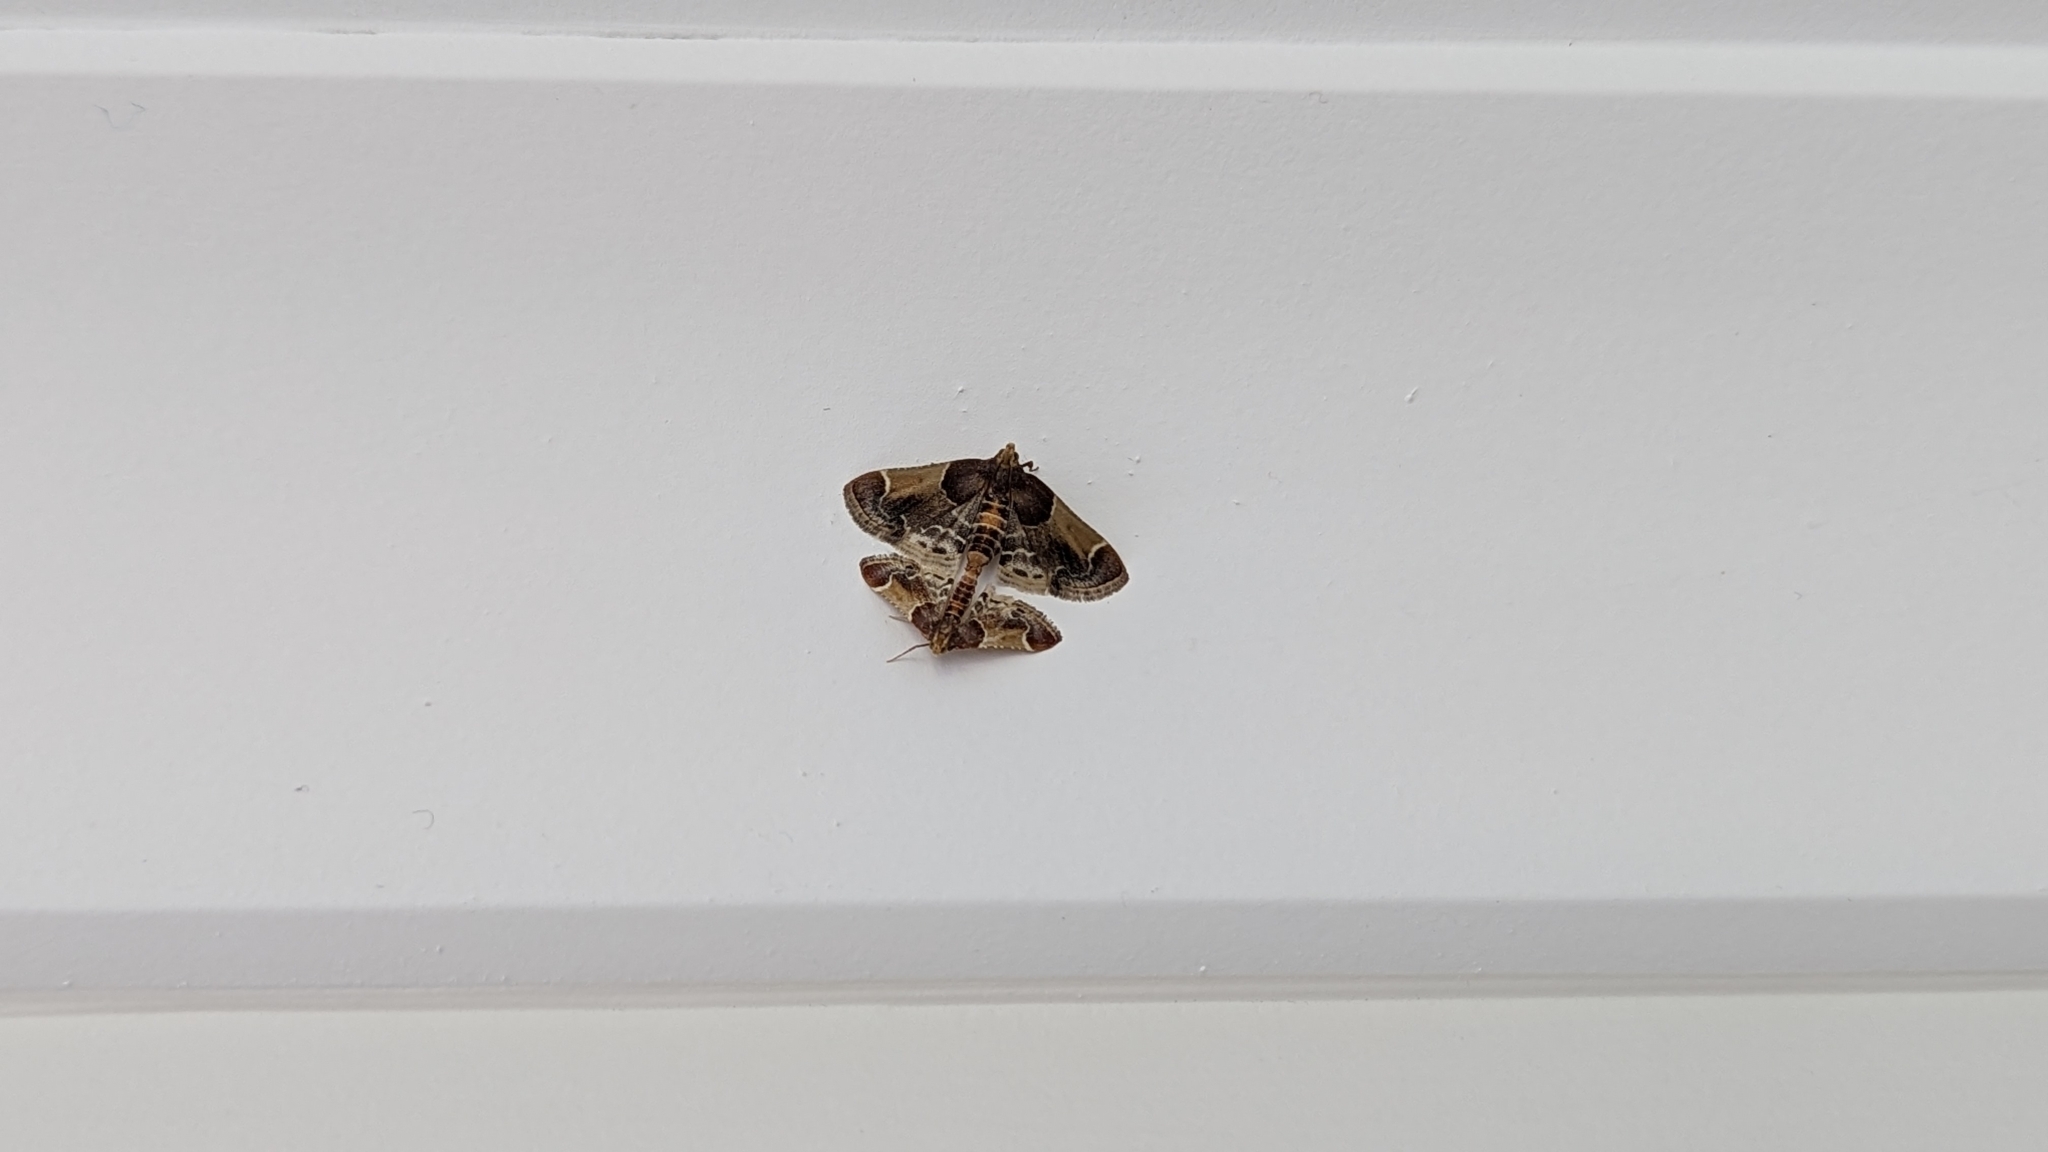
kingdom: Animalia
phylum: Arthropoda
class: Insecta
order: Lepidoptera
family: Pyralidae
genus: Pyralis
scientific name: Pyralis farinalis
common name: Meal moth
